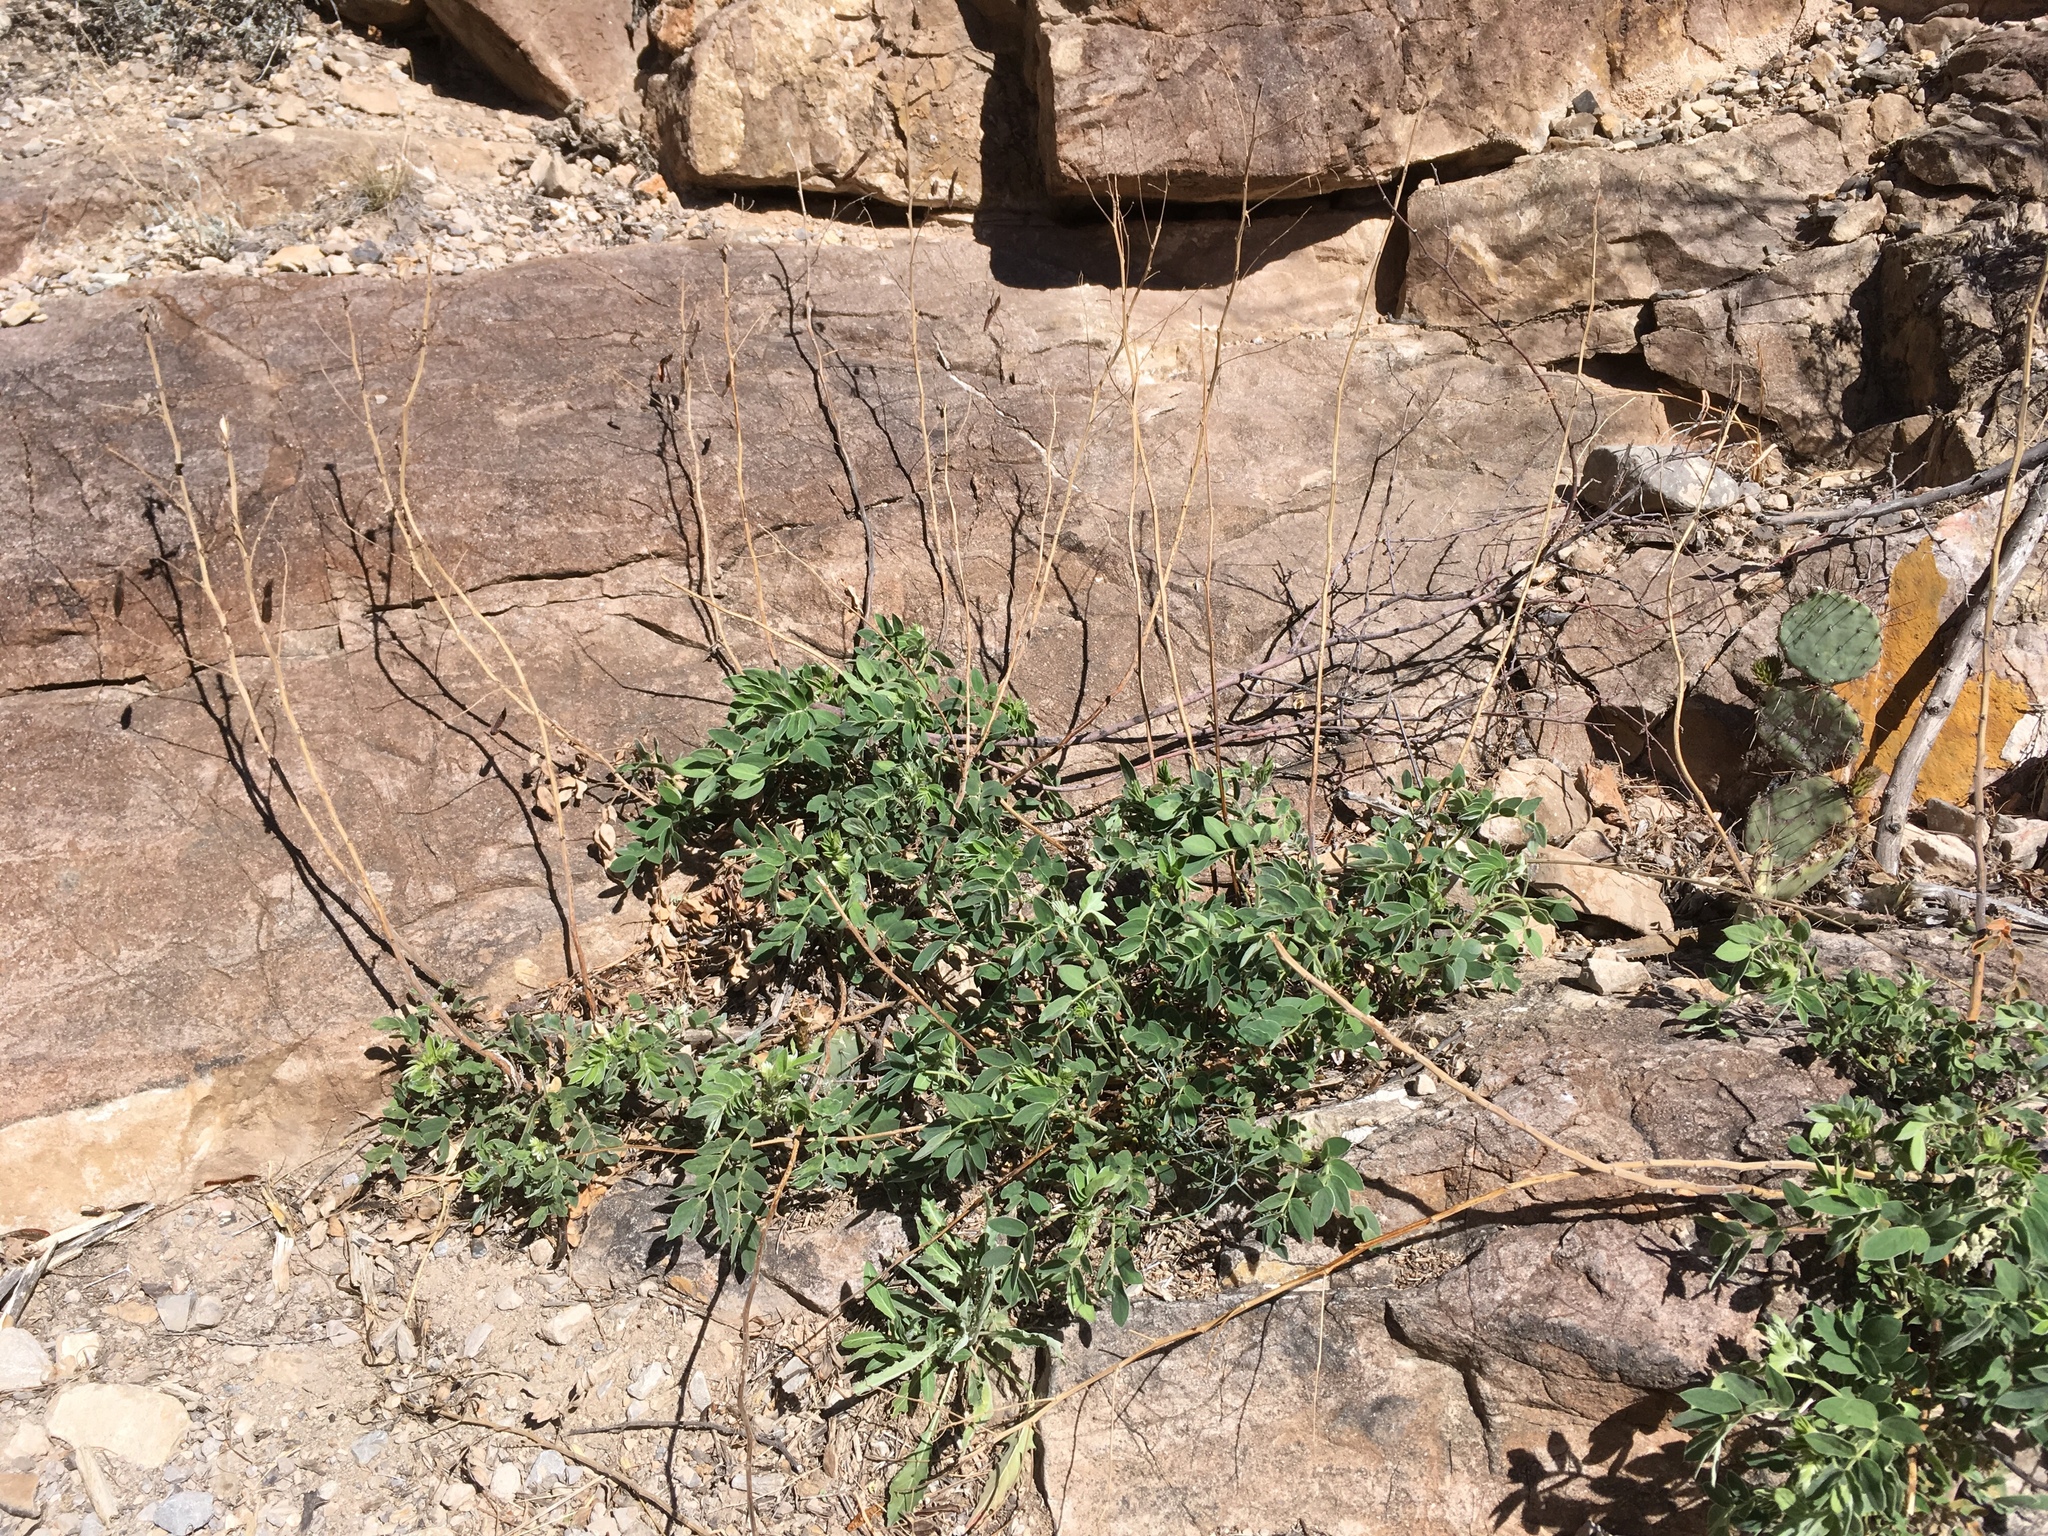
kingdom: Plantae
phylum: Tracheophyta
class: Magnoliopsida
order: Fabales
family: Fabaceae
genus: Senna
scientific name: Senna lindheimeriana
